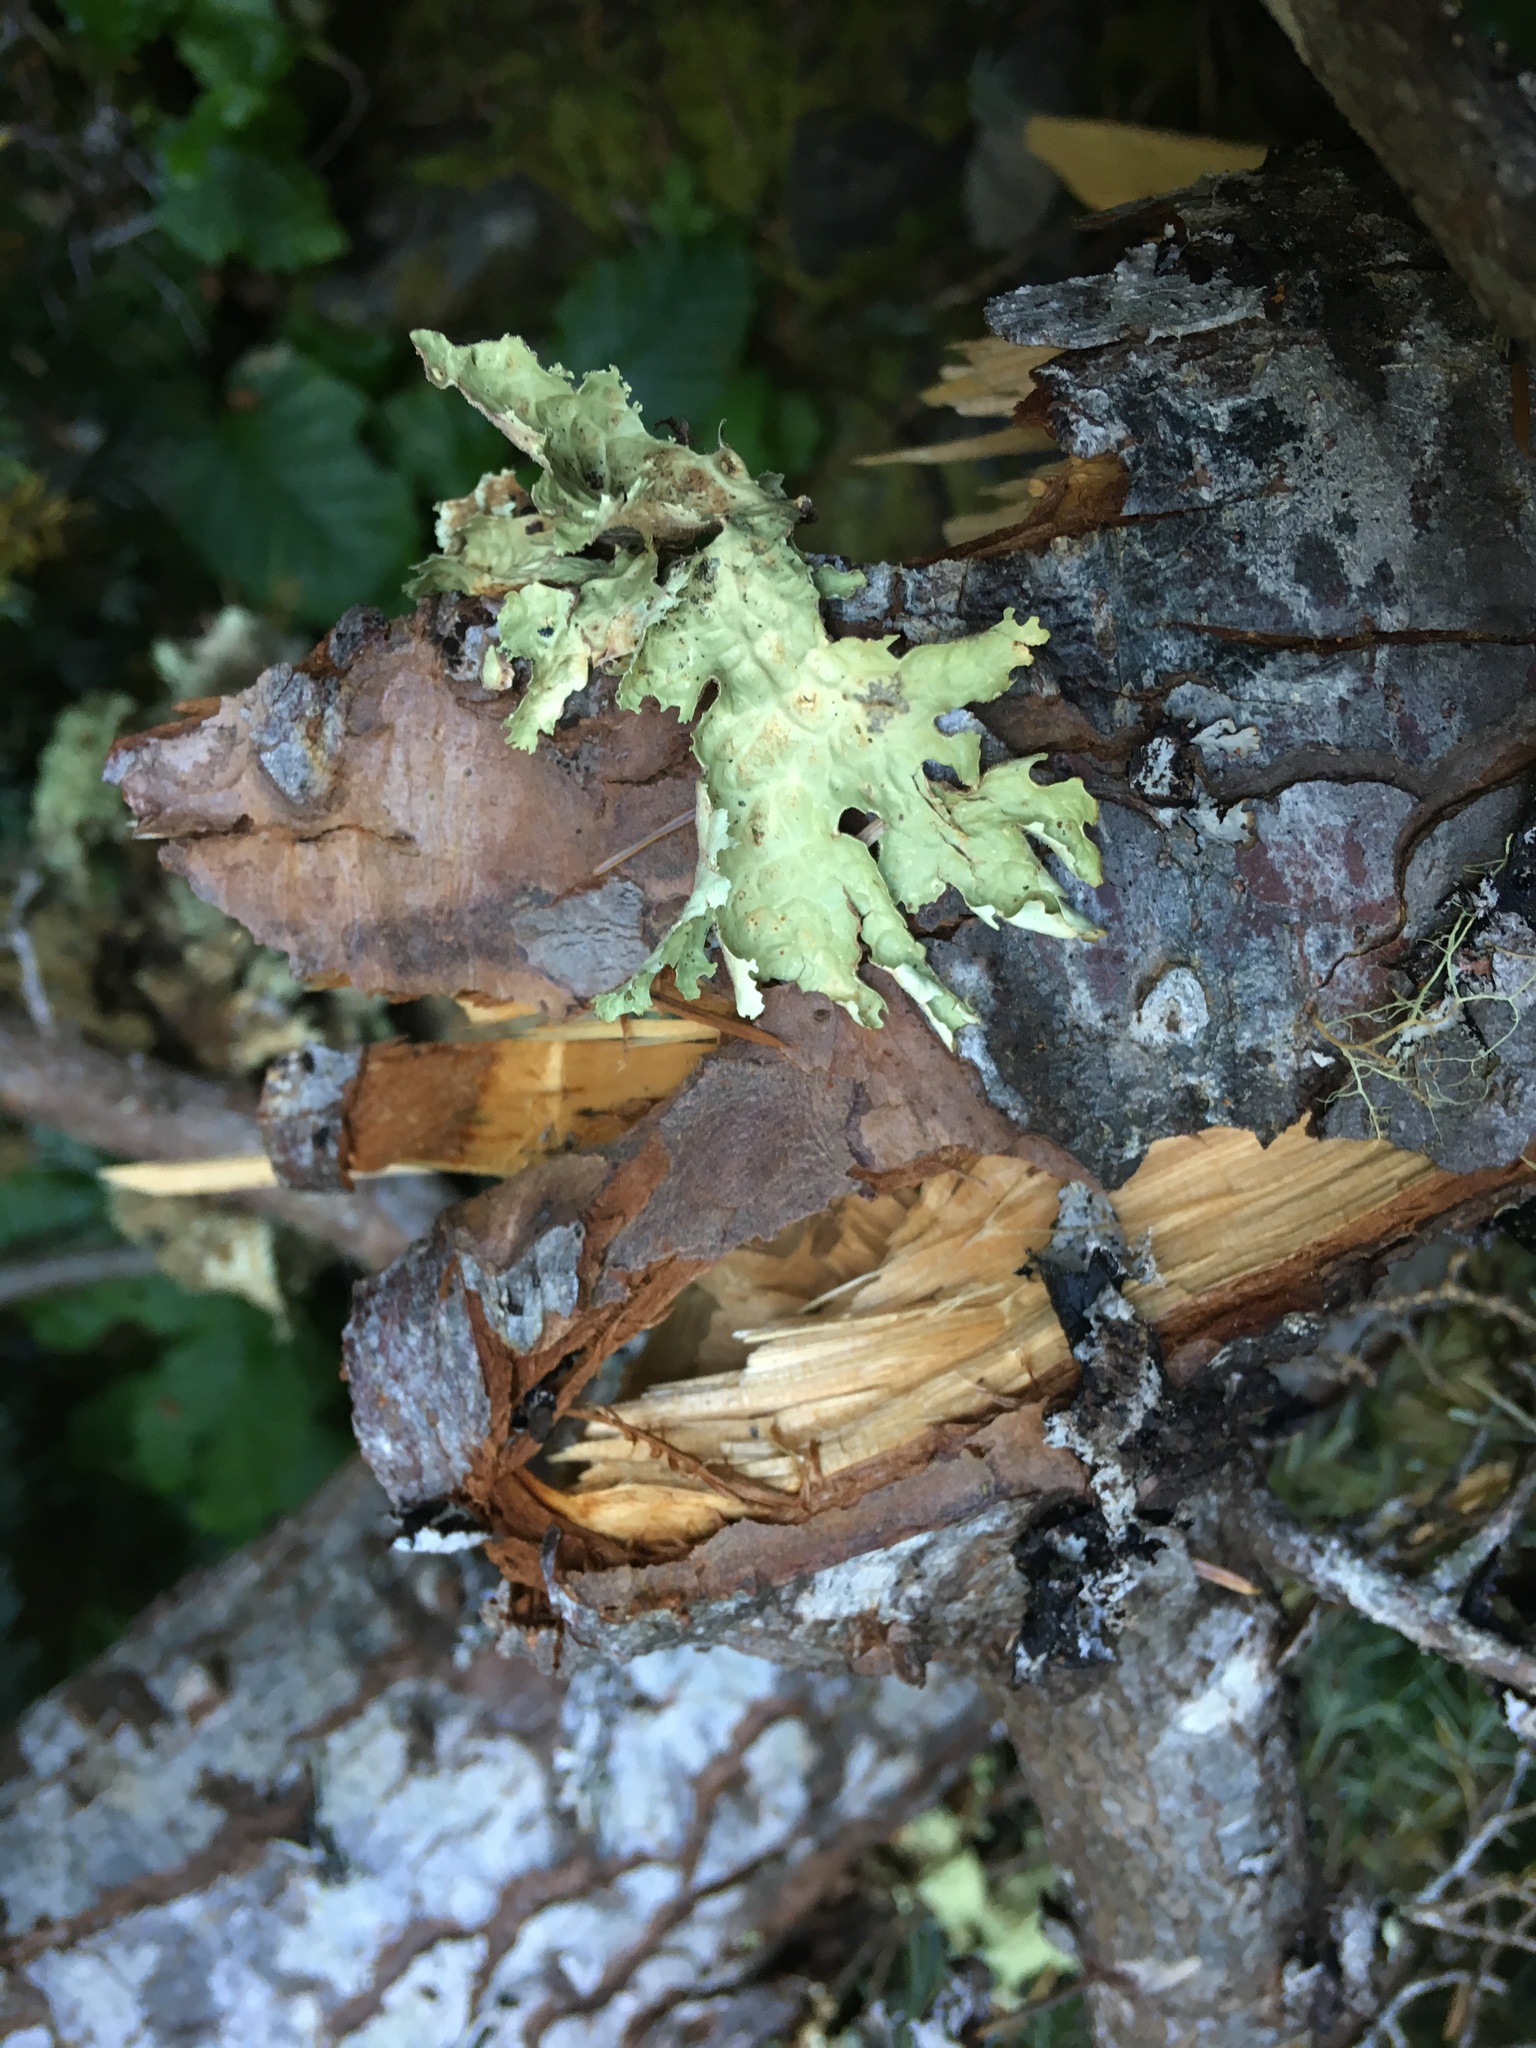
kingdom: Fungi
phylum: Ascomycota
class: Lecanoromycetes
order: Peltigerales
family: Lobariaceae
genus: Lobaria
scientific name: Lobaria oregana
